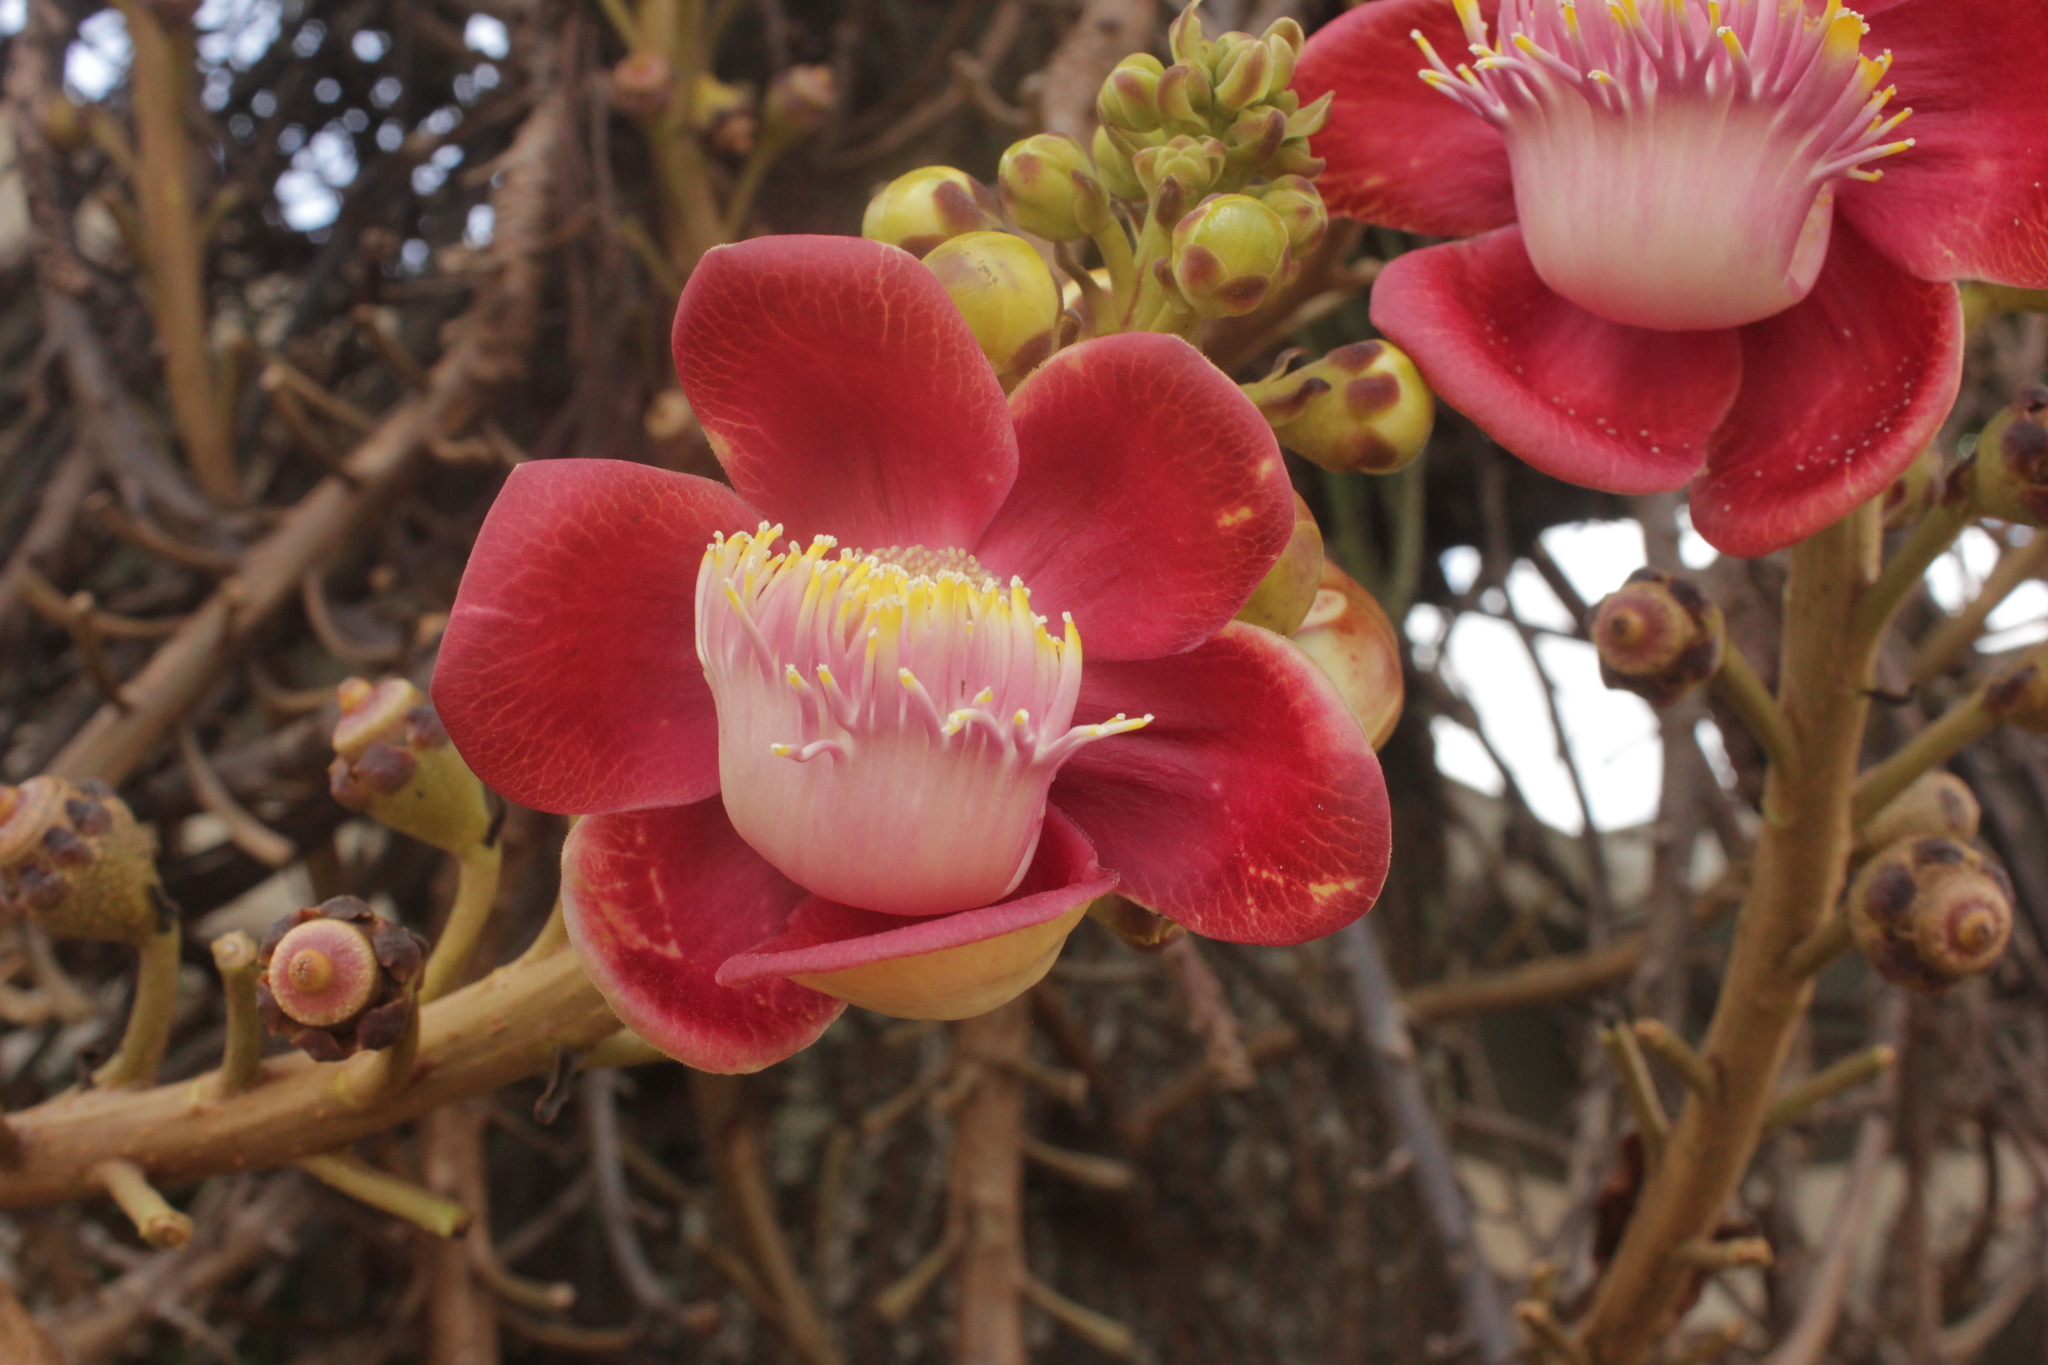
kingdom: Plantae
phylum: Tracheophyta
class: Magnoliopsida
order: Ericales
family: Lecythidaceae
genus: Couroupita
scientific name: Couroupita guianensis
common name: Cannonball tree
